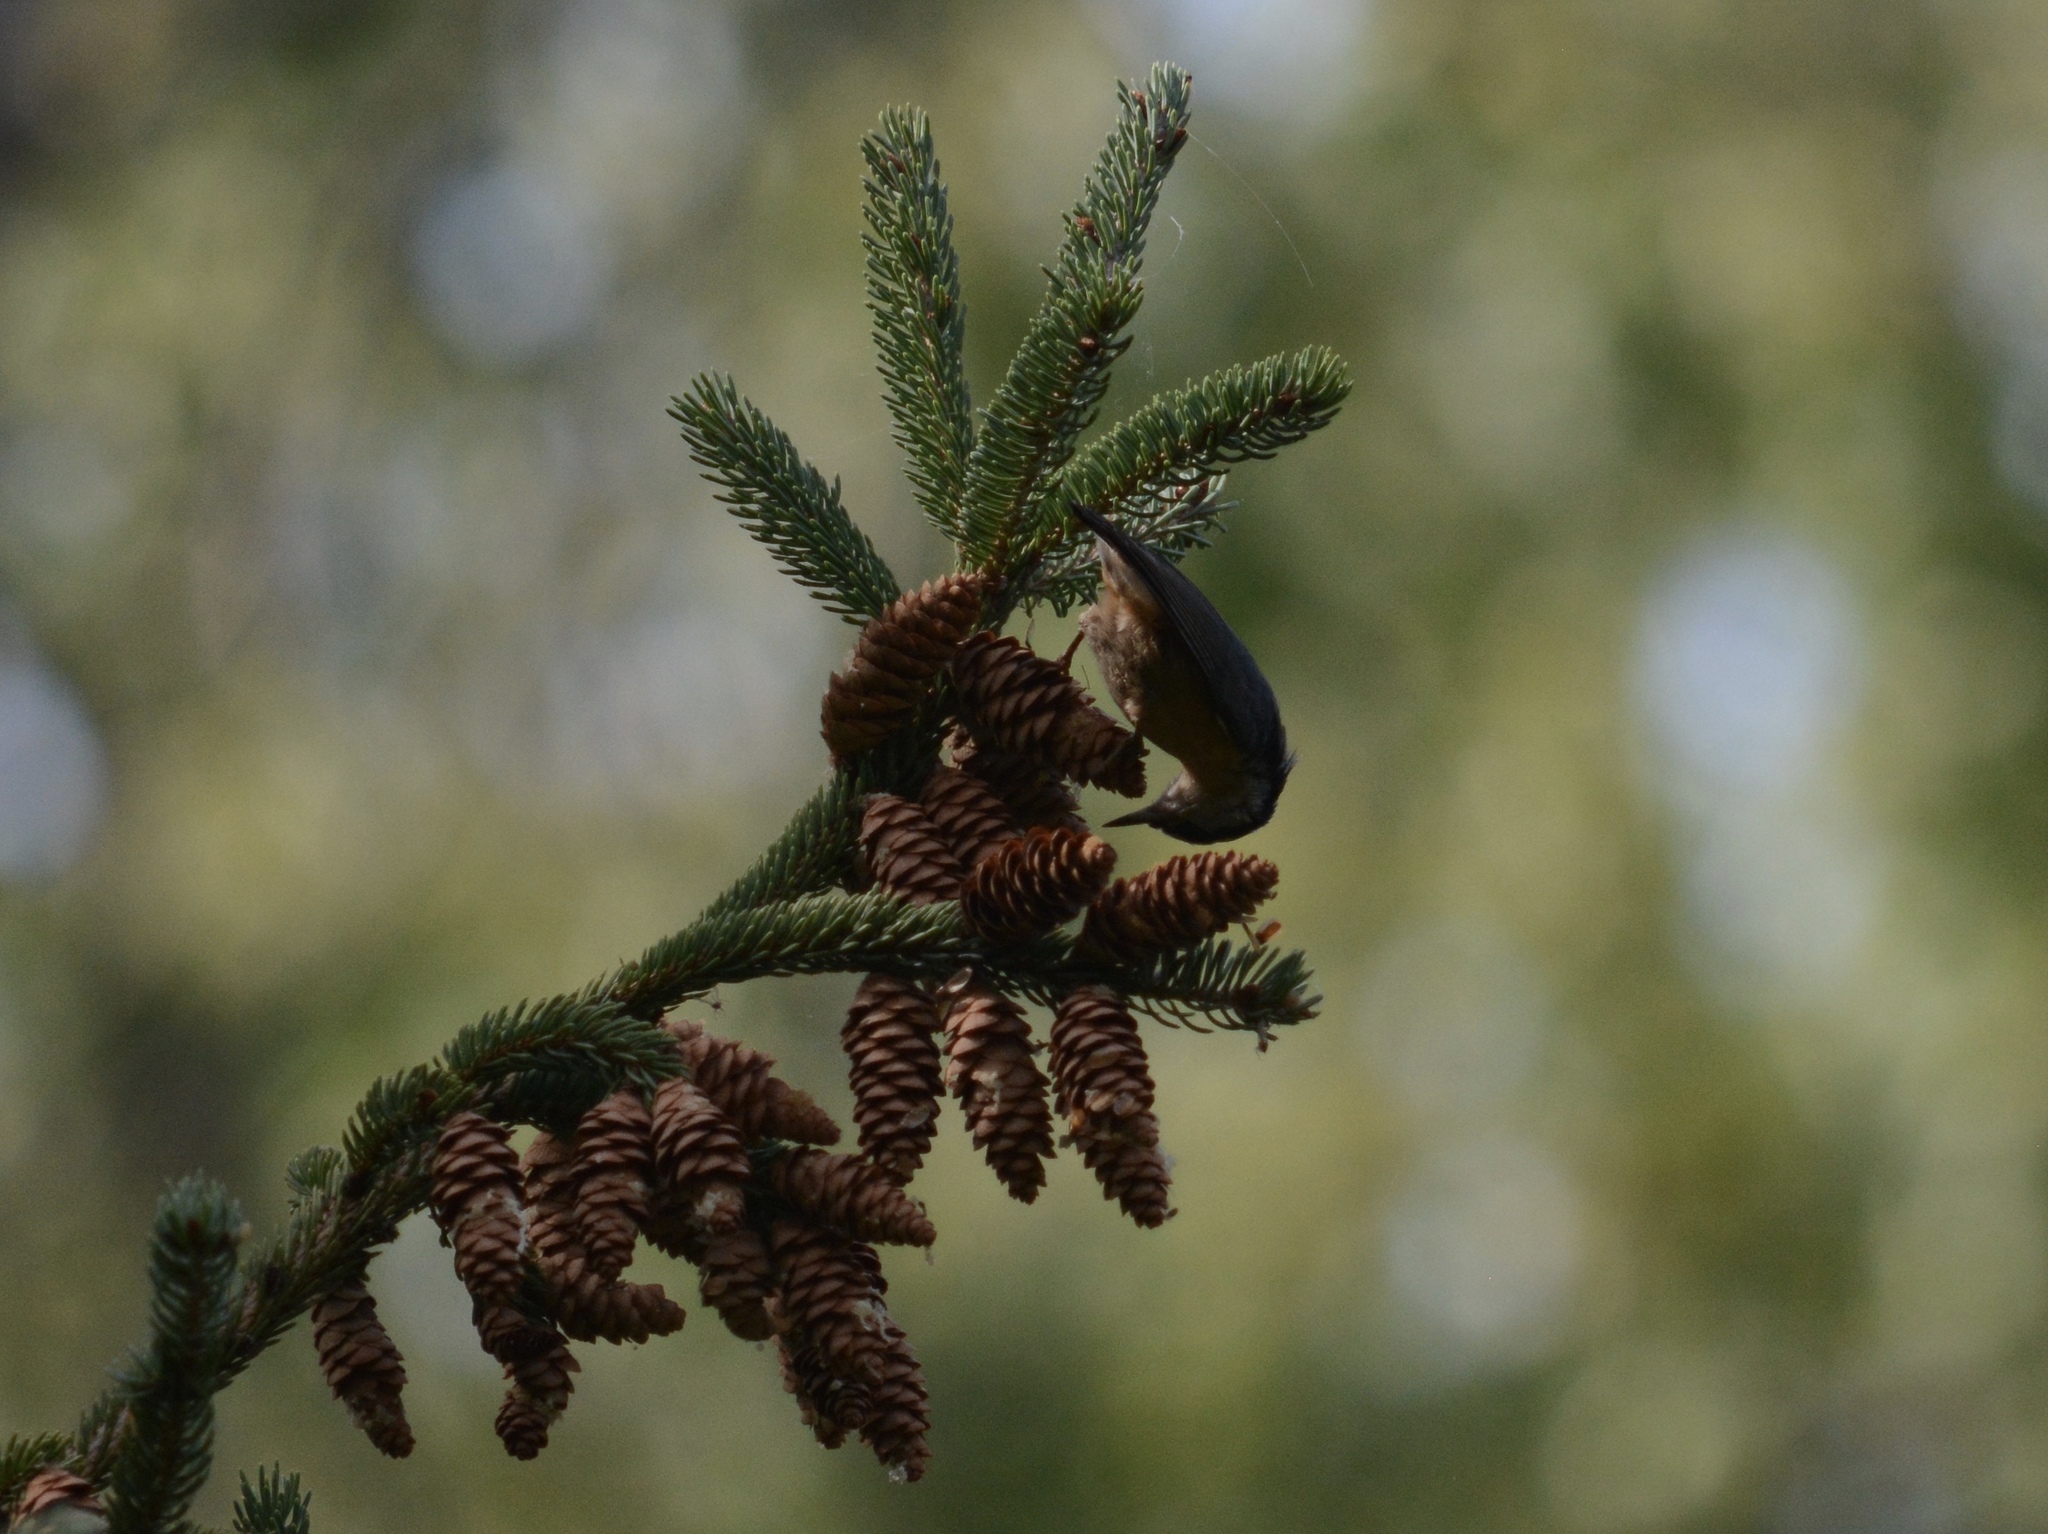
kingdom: Animalia
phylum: Chordata
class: Aves
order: Passeriformes
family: Sittidae
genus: Sitta
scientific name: Sitta canadensis
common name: Red-breasted nuthatch
